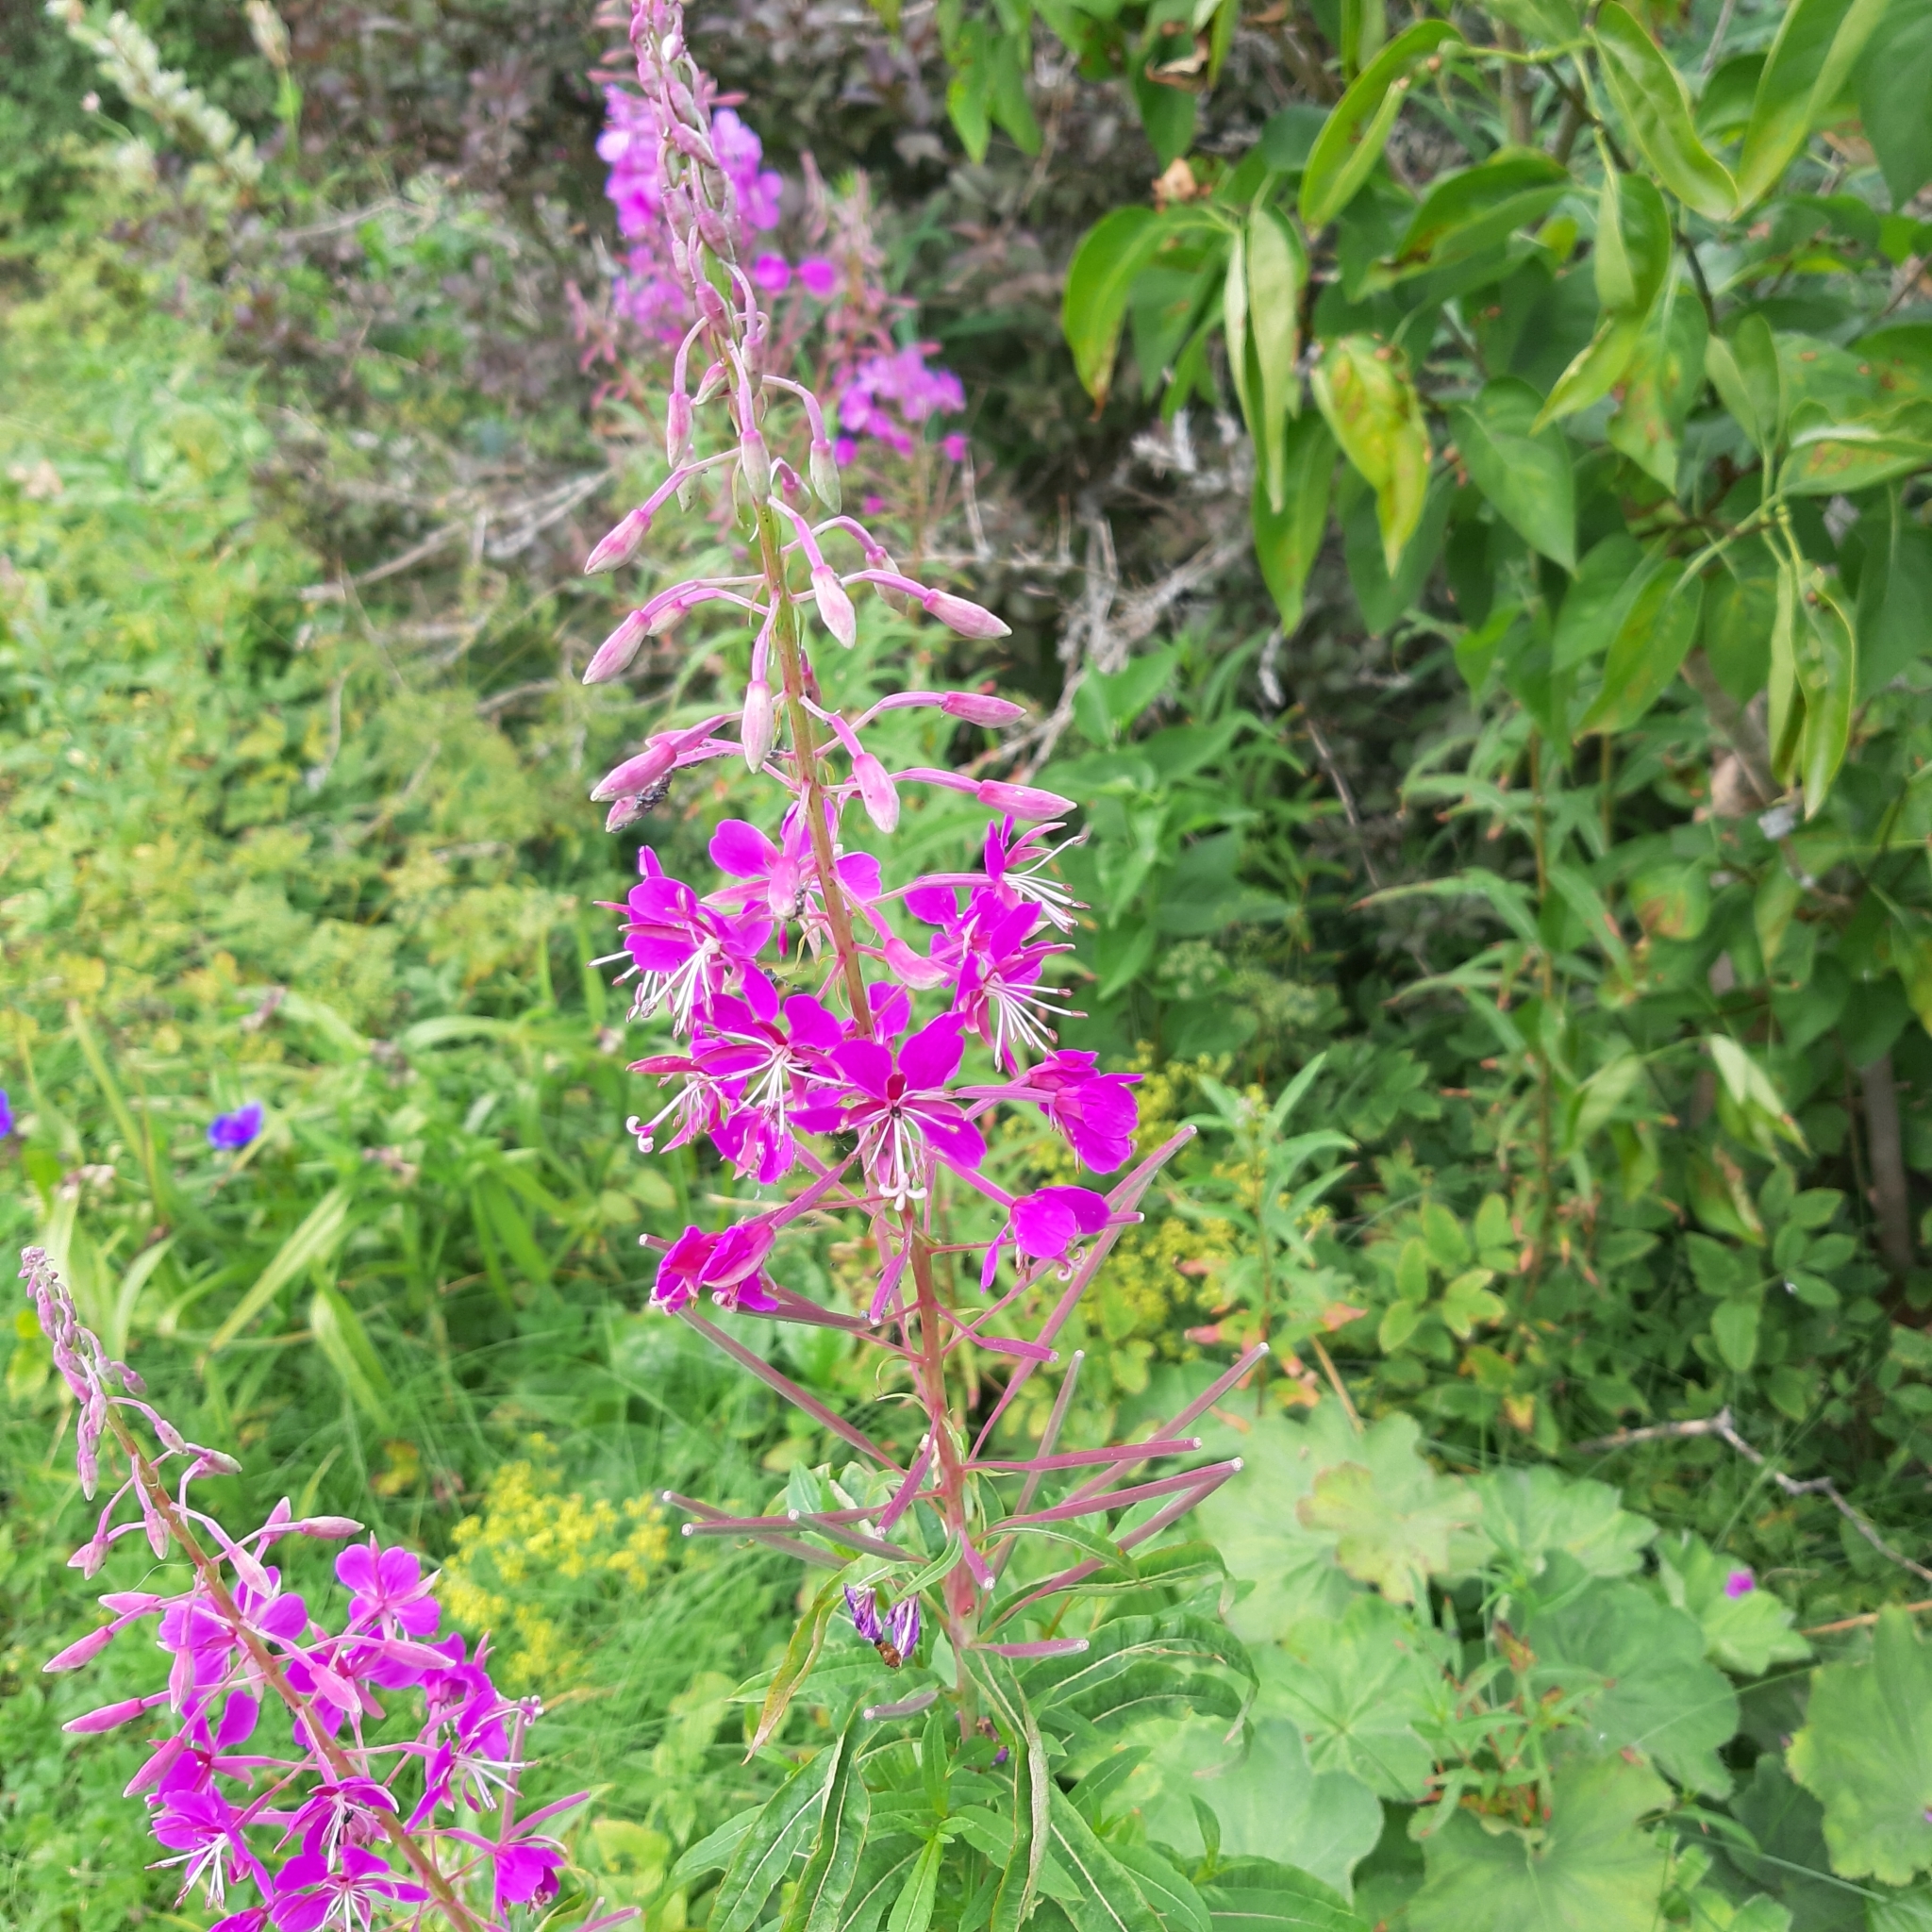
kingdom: Plantae
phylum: Tracheophyta
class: Magnoliopsida
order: Myrtales
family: Onagraceae
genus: Chamaenerion
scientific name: Chamaenerion angustifolium
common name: Fireweed
